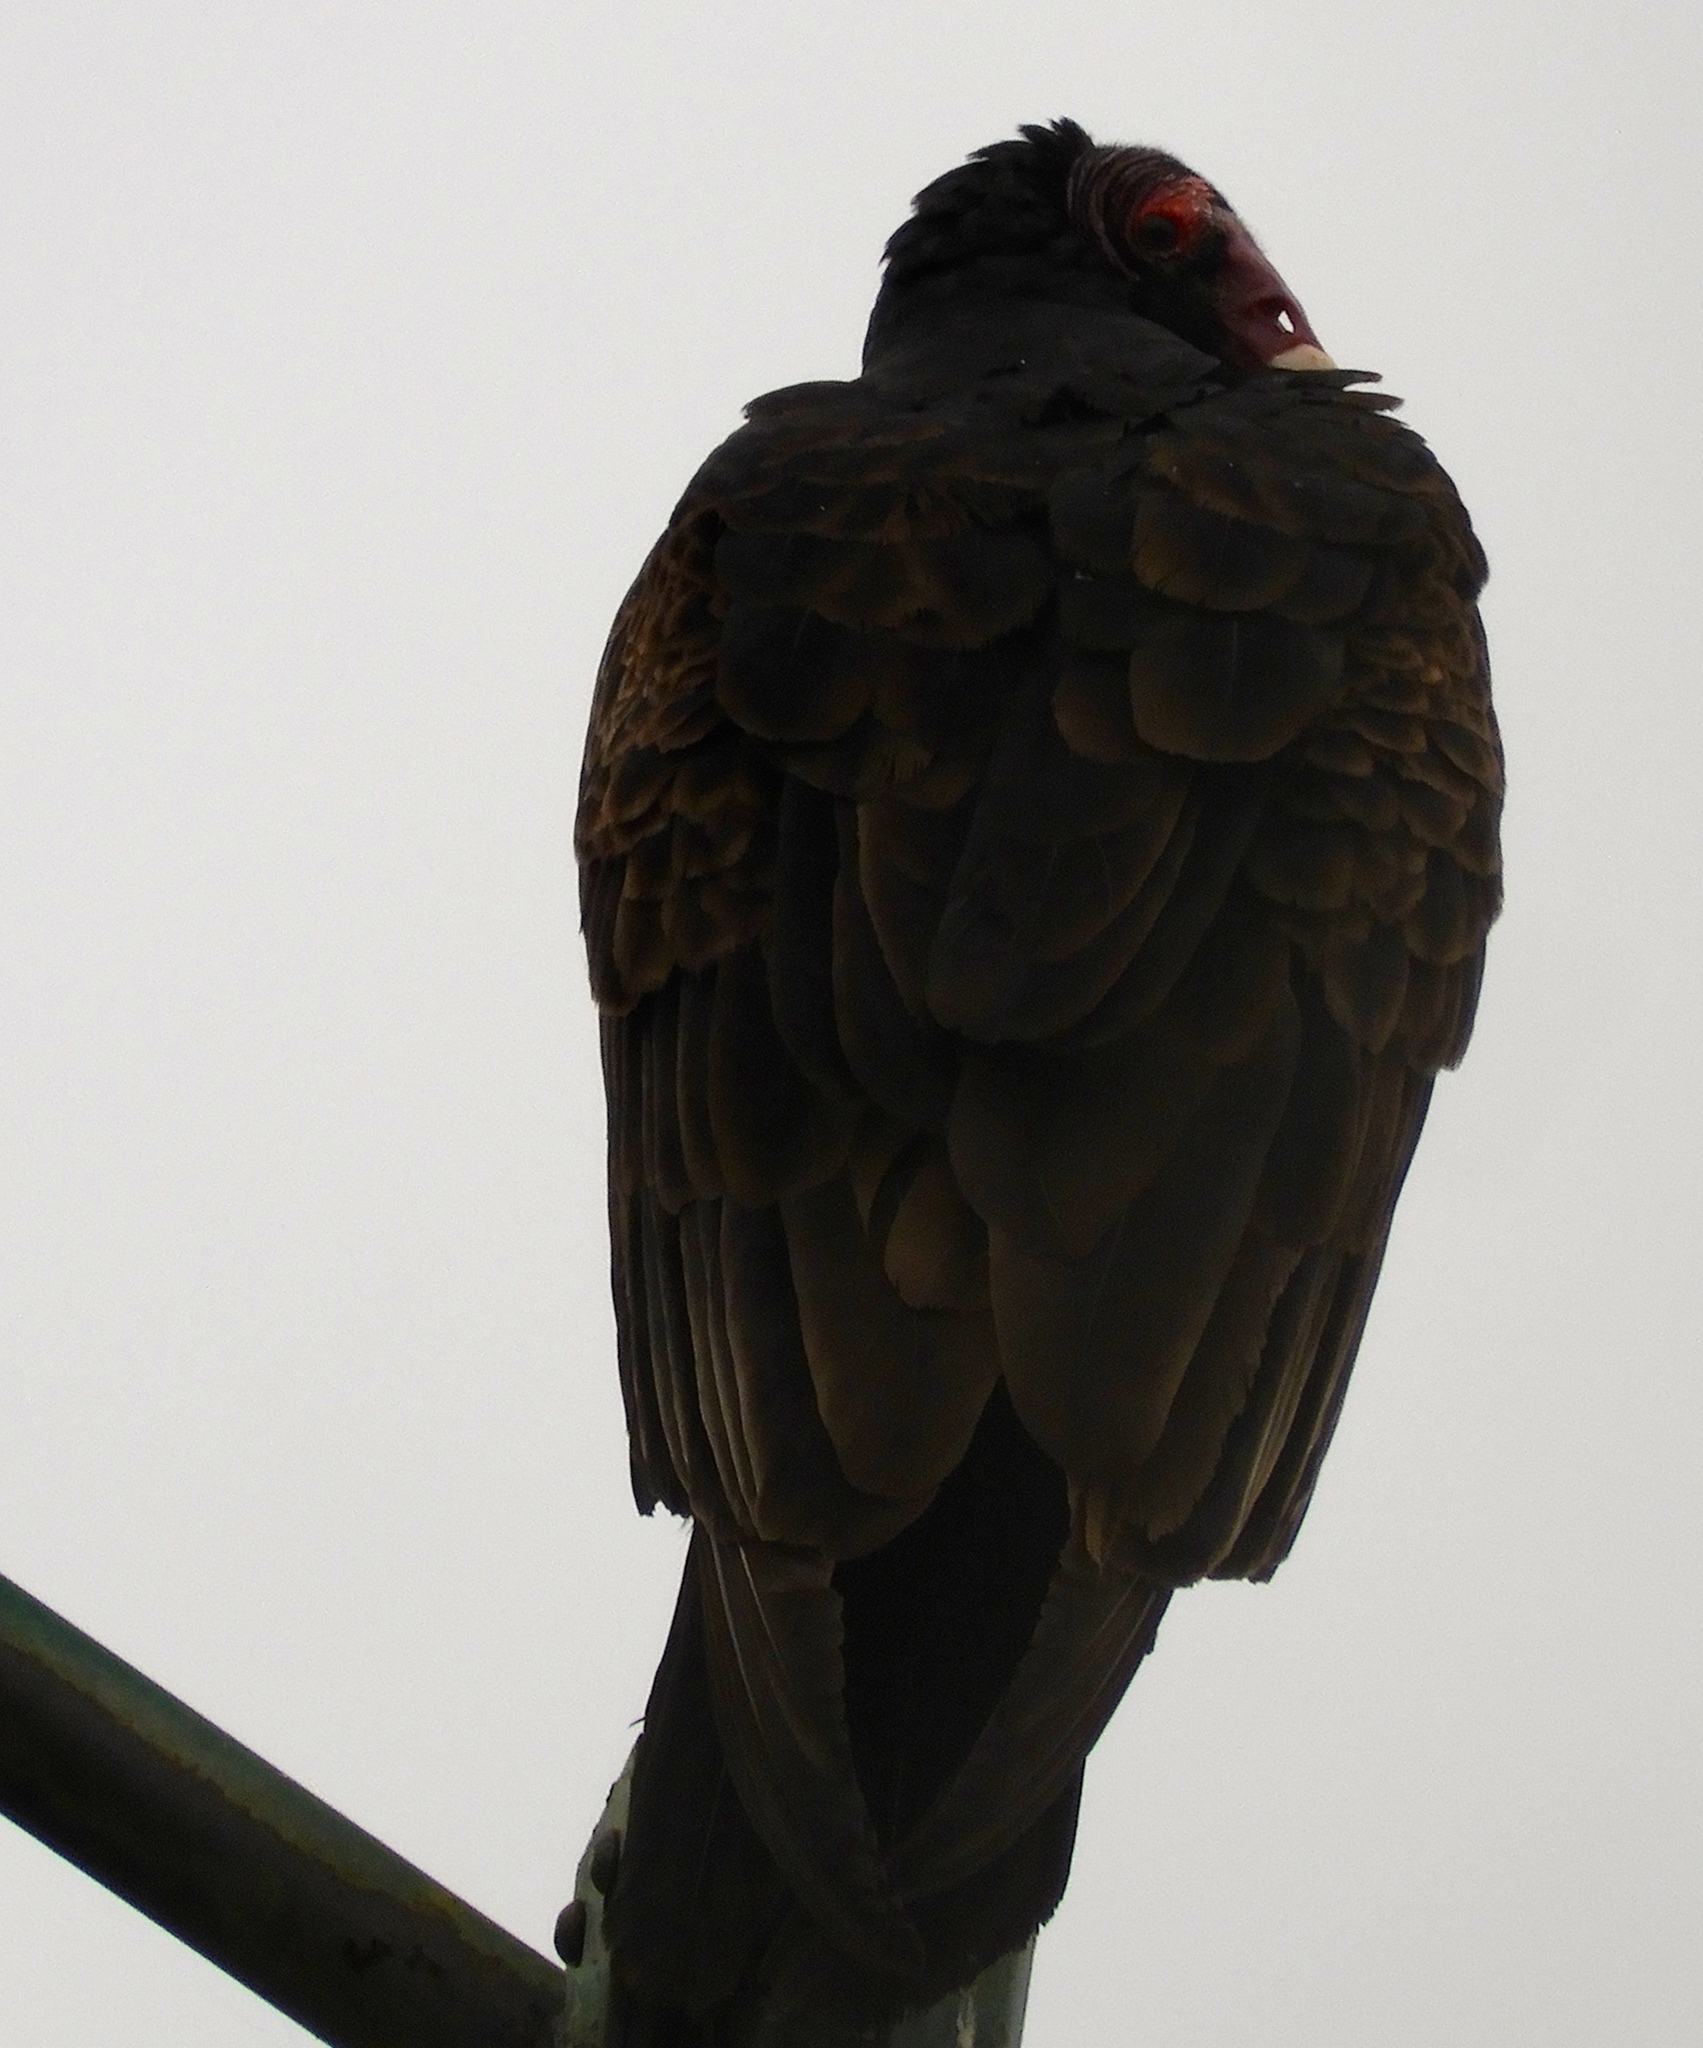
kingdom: Animalia
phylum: Chordata
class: Aves
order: Accipitriformes
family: Cathartidae
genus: Cathartes
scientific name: Cathartes aura
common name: Turkey vulture
